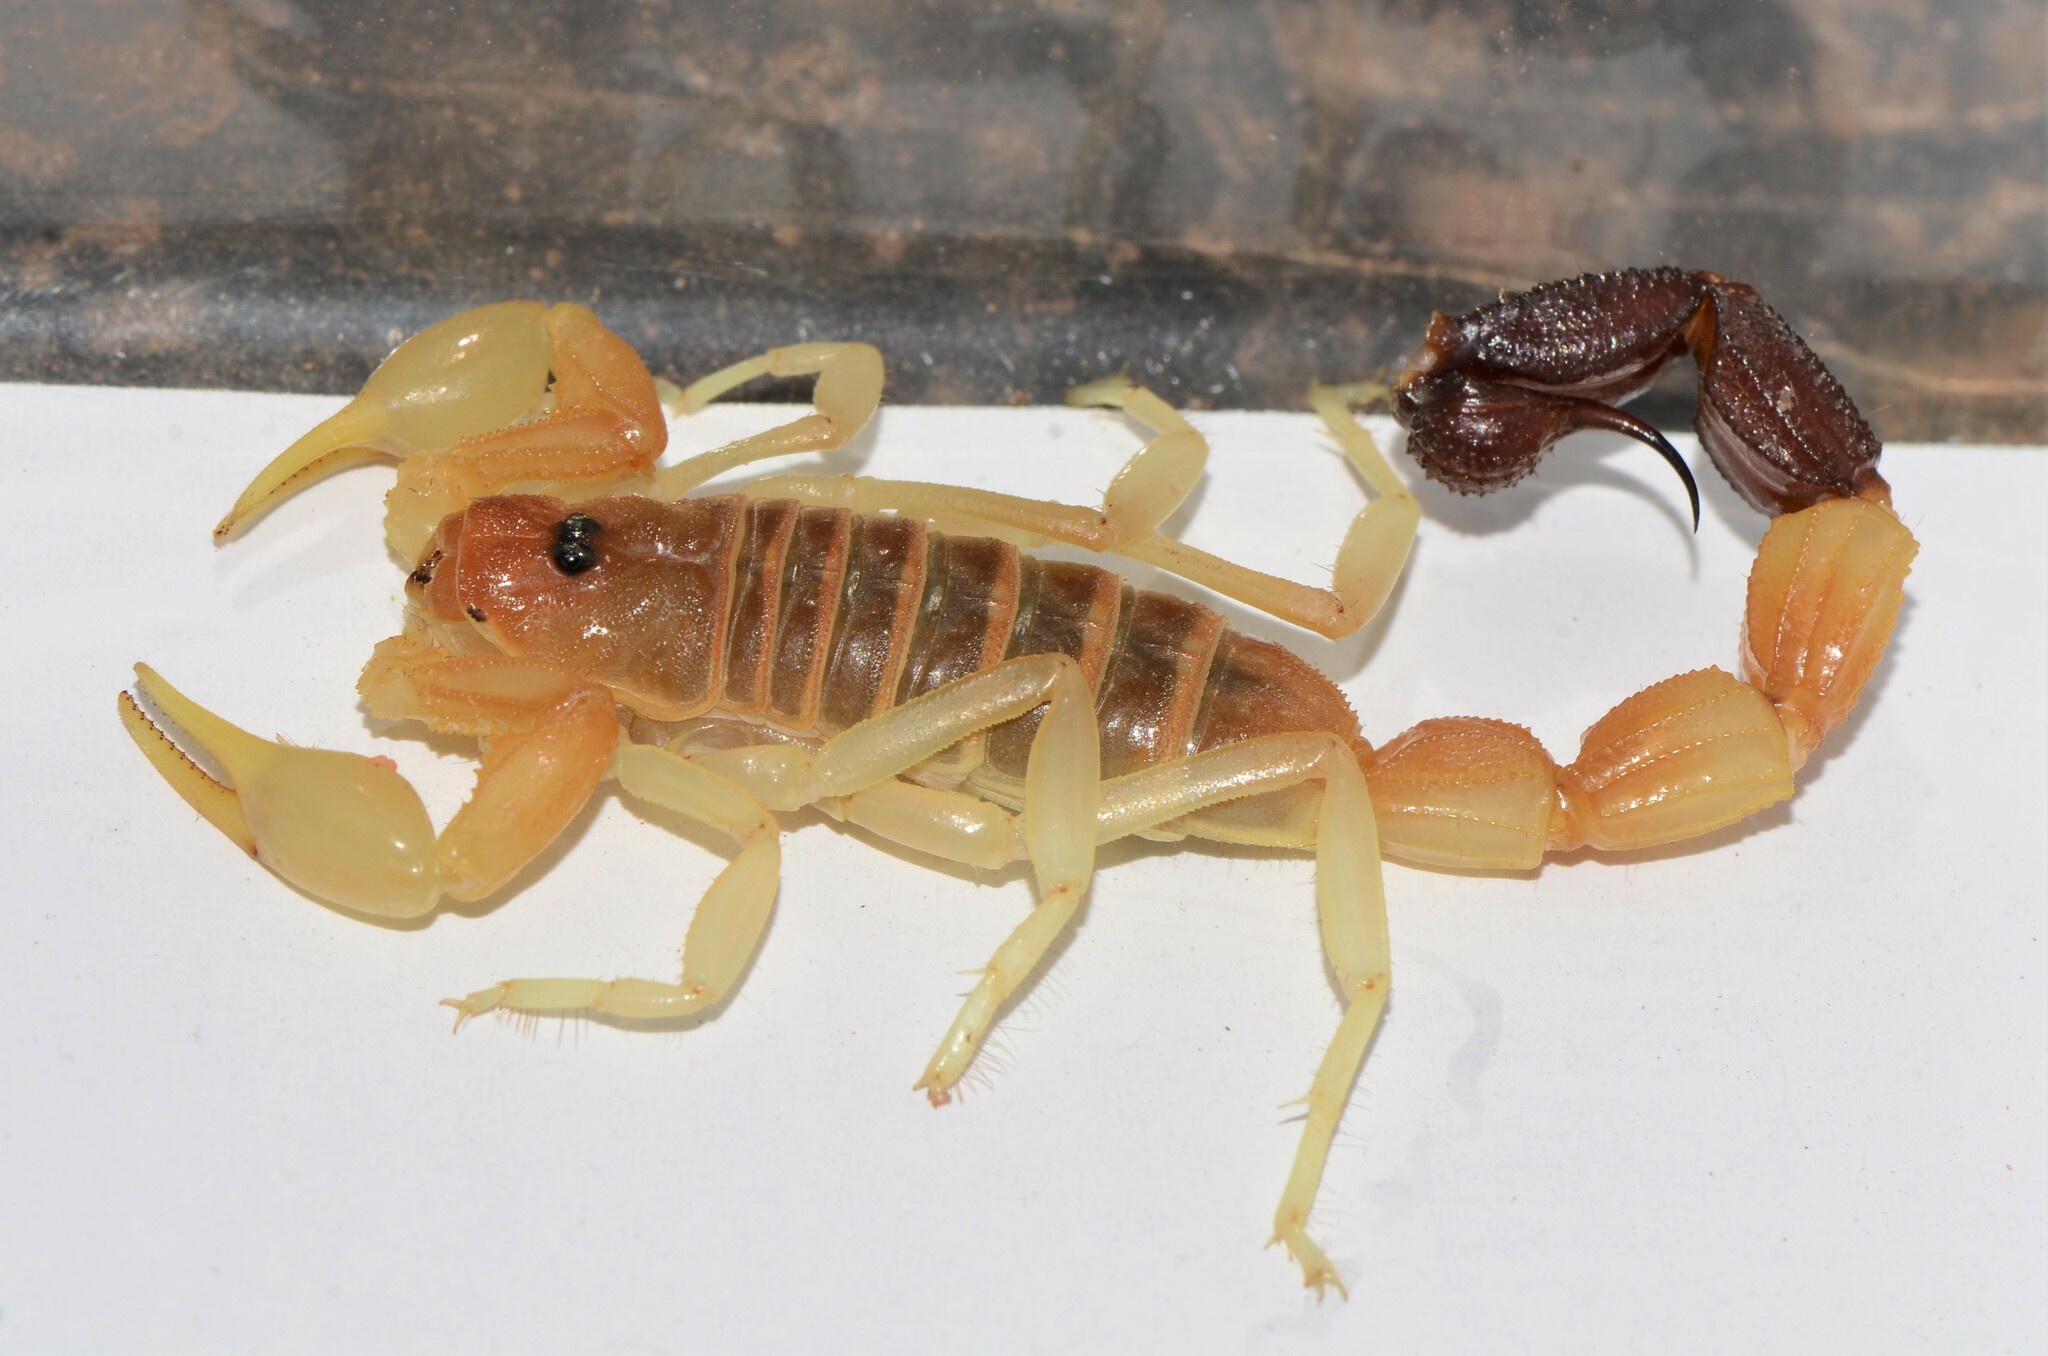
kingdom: Animalia
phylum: Arthropoda
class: Arachnida
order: Scorpiones
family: Buthidae
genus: Parabuthus
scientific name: Parabuthus laevifrons
